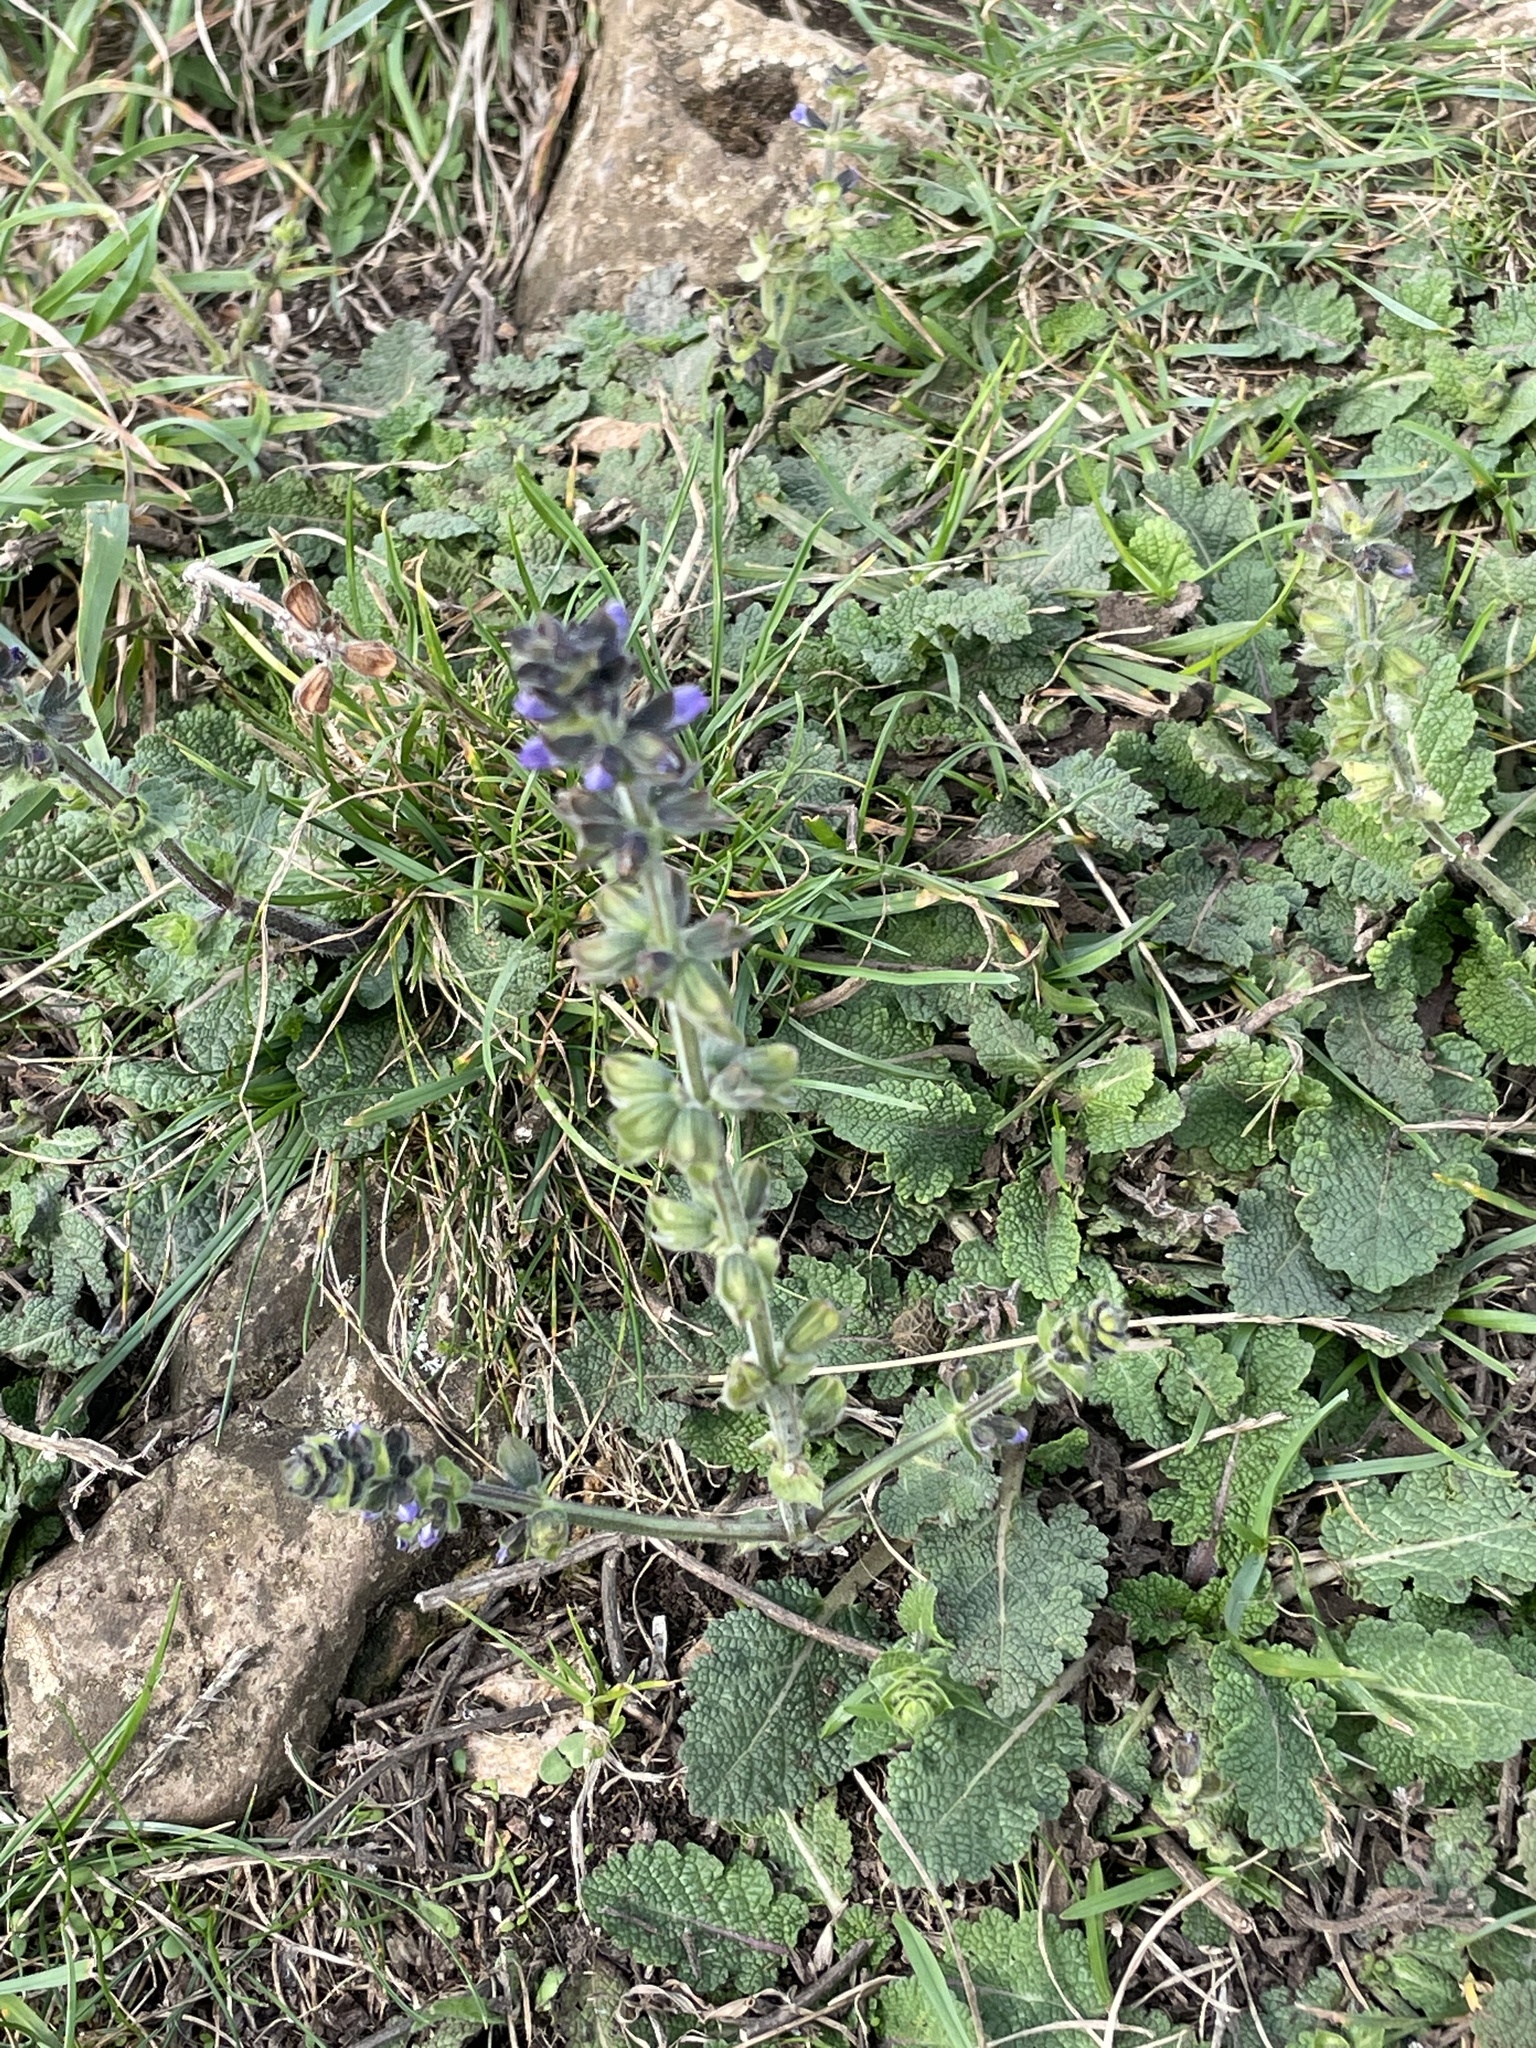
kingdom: Plantae
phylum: Tracheophyta
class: Magnoliopsida
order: Lamiales
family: Lamiaceae
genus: Salvia
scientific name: Salvia verbenaca
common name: Wild clary
